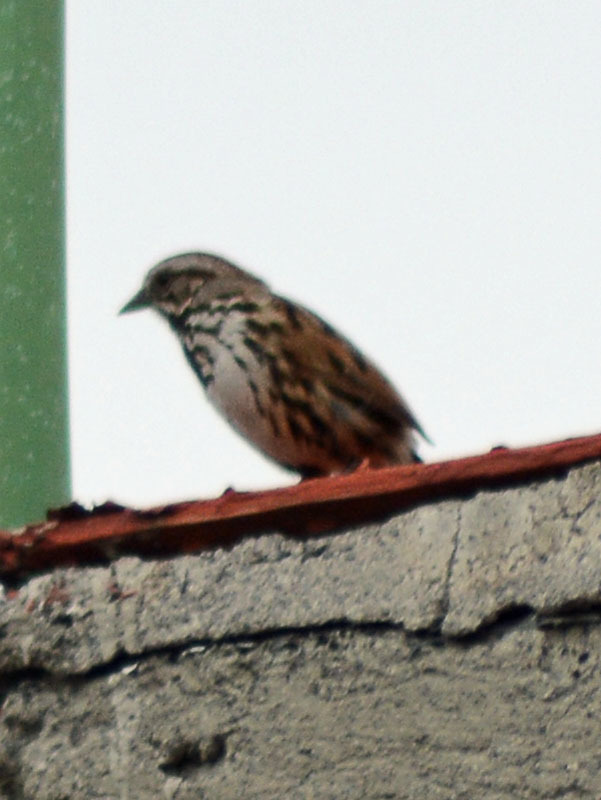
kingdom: Animalia
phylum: Chordata
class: Aves
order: Passeriformes
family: Passerellidae
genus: Melospiza
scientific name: Melospiza melodia
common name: Song sparrow
